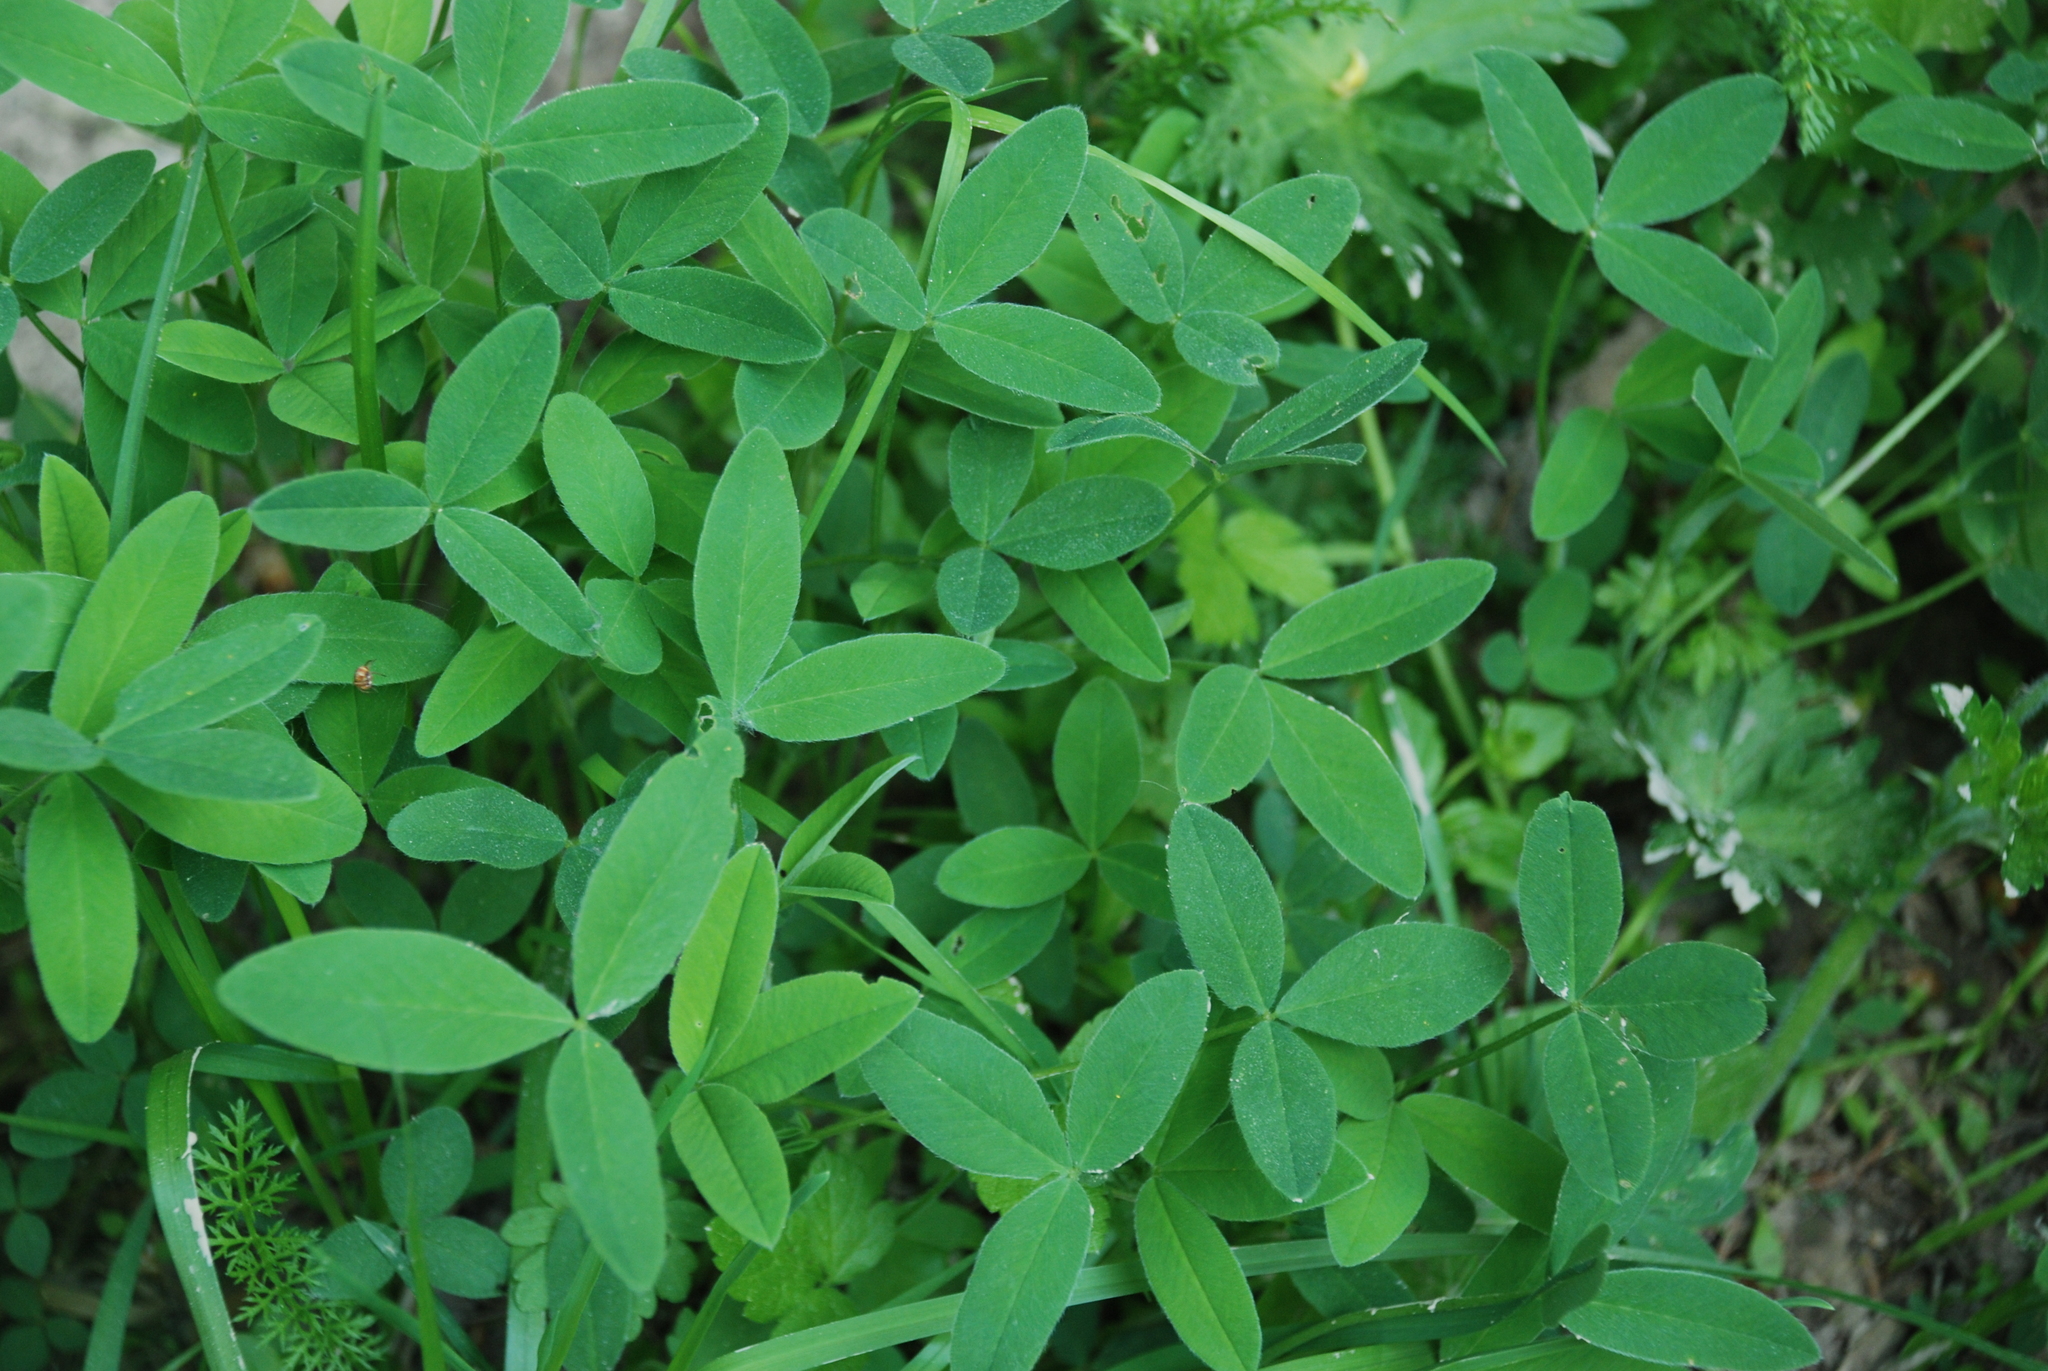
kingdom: Plantae
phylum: Tracheophyta
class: Magnoliopsida
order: Fabales
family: Fabaceae
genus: Trifolium
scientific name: Trifolium medium
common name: Zigzag clover
